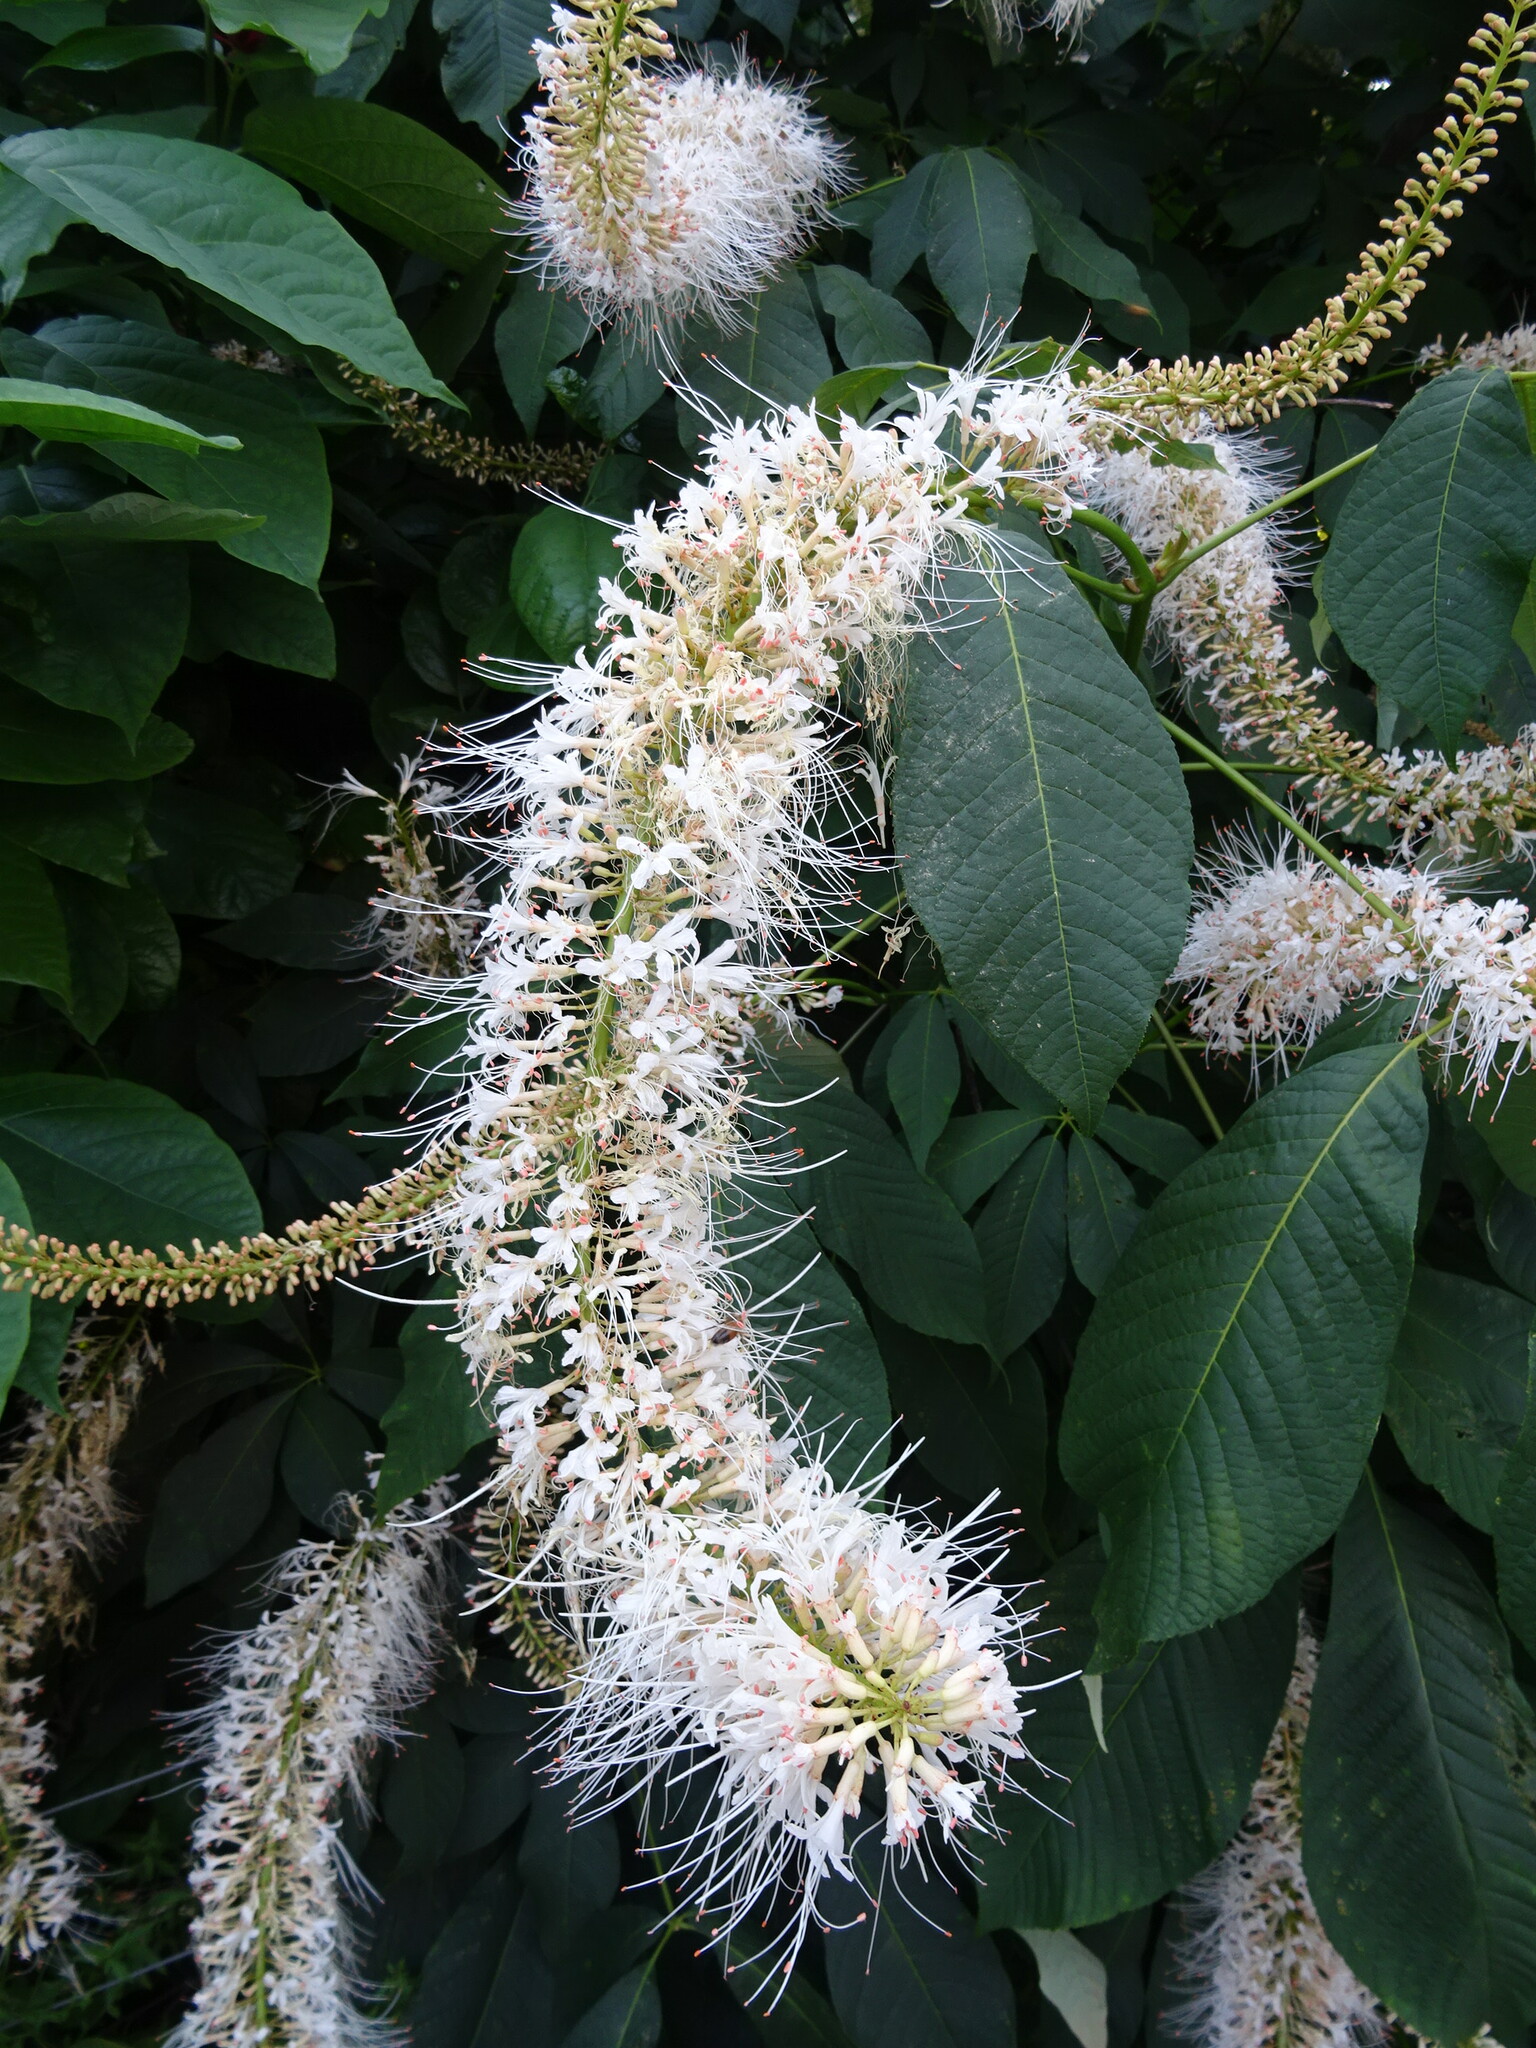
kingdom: Plantae
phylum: Tracheophyta
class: Magnoliopsida
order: Sapindales
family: Sapindaceae
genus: Aesculus
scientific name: Aesculus parviflora
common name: Bottlebrush buckeye
